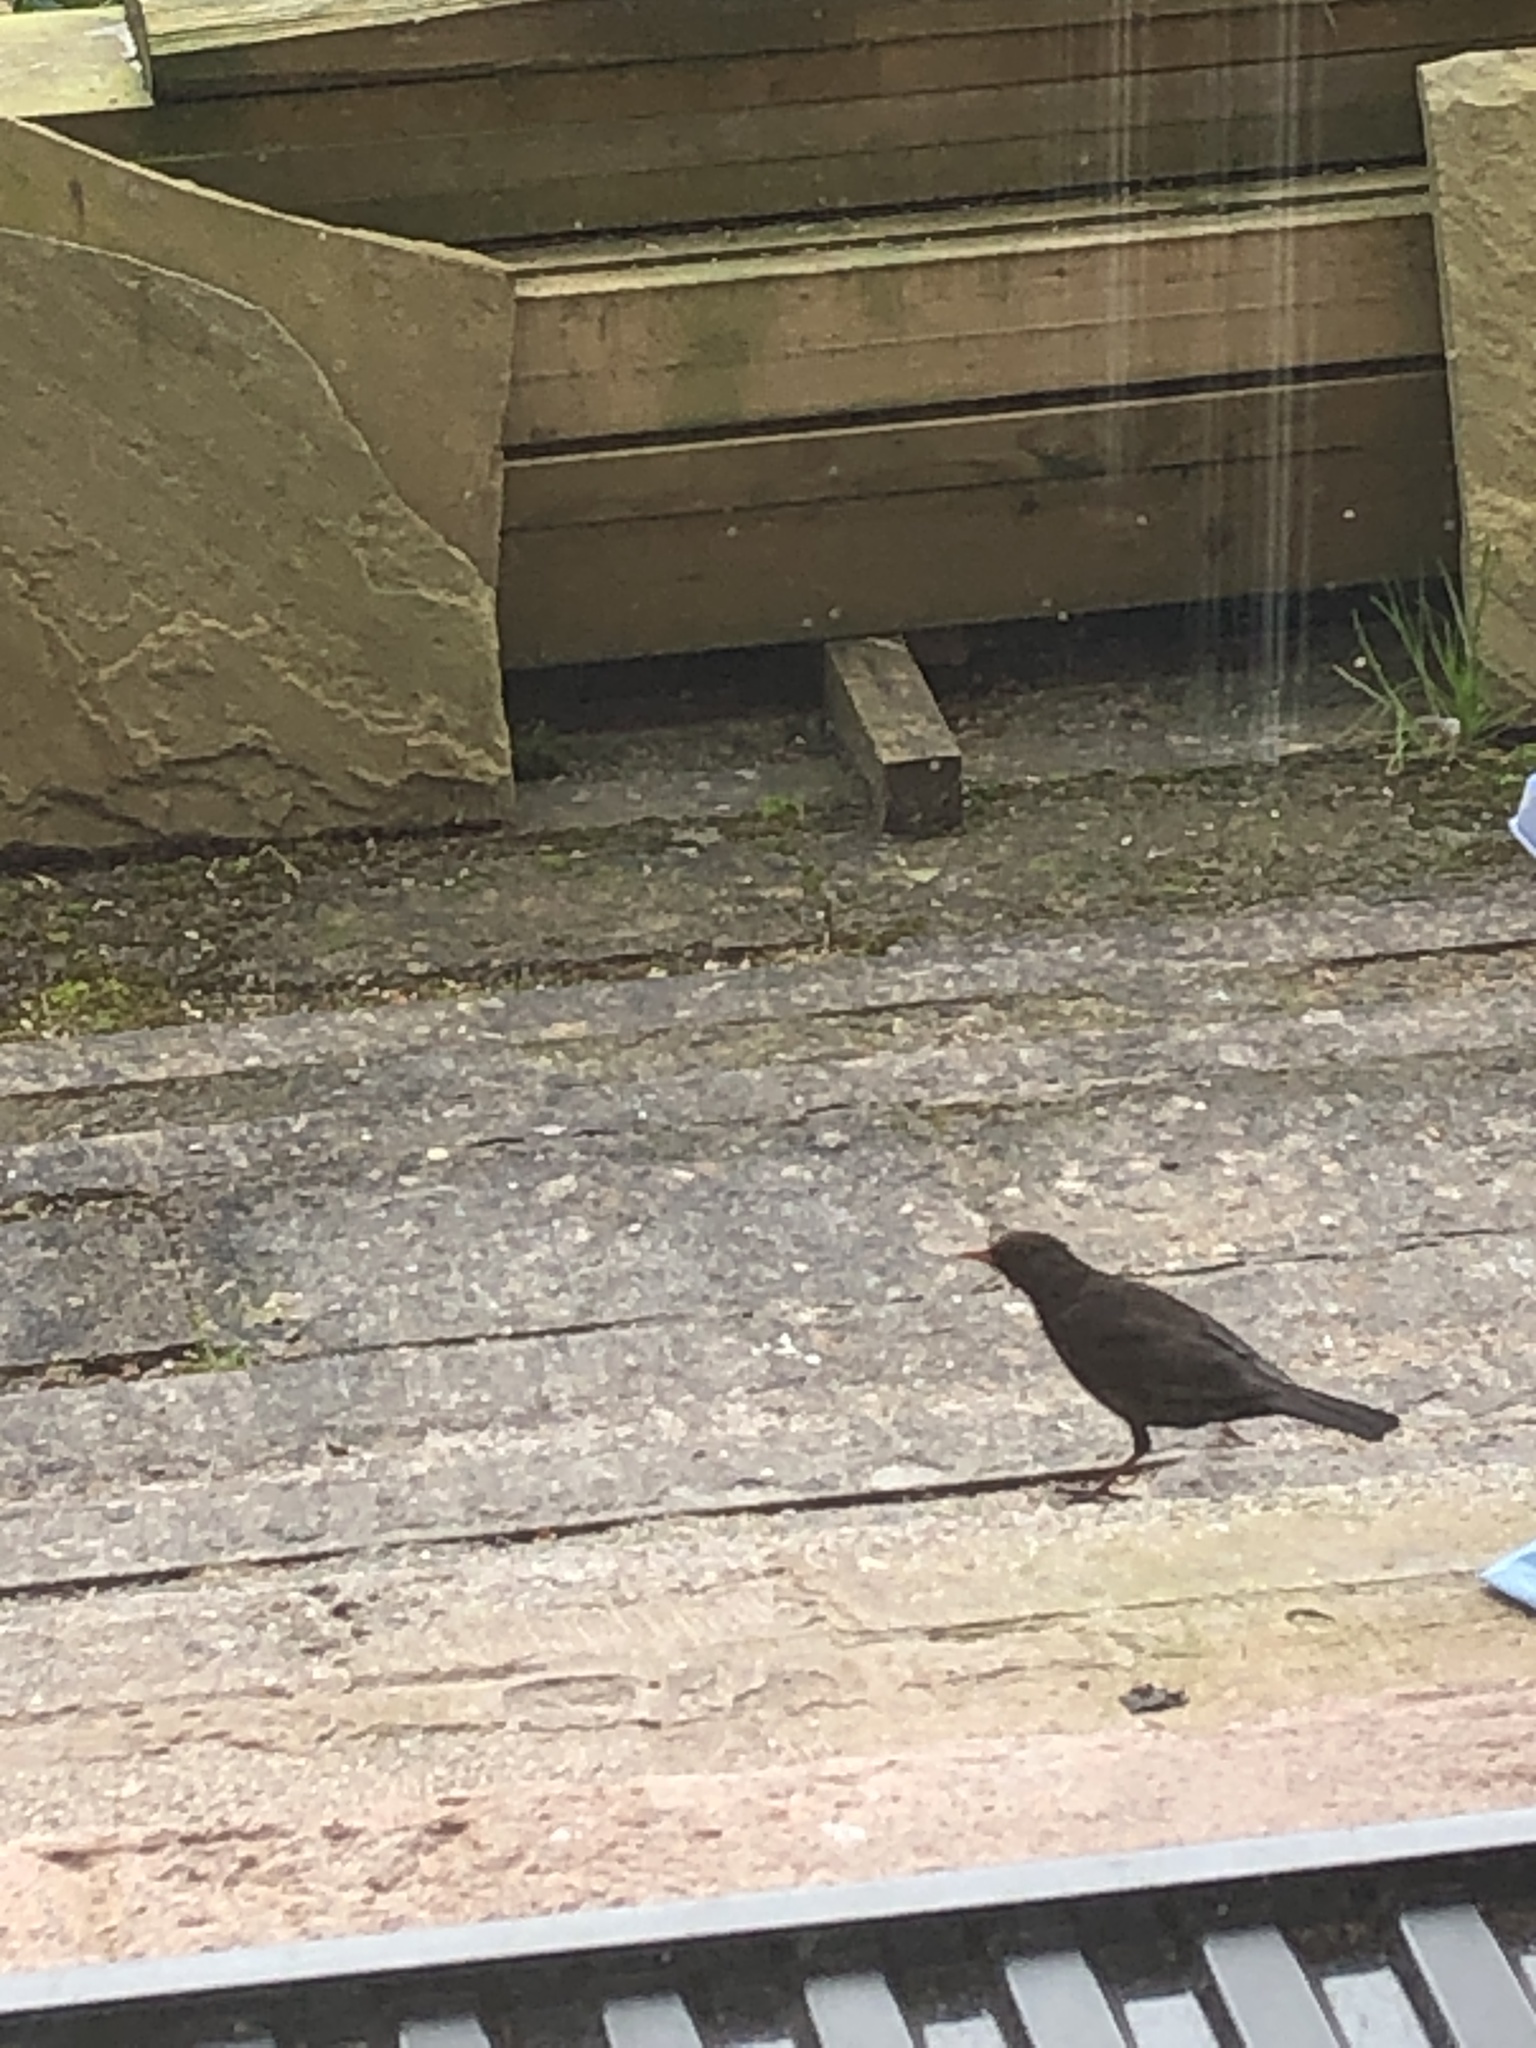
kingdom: Animalia
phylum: Chordata
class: Aves
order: Passeriformes
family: Turdidae
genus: Turdus
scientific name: Turdus merula
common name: Common blackbird
